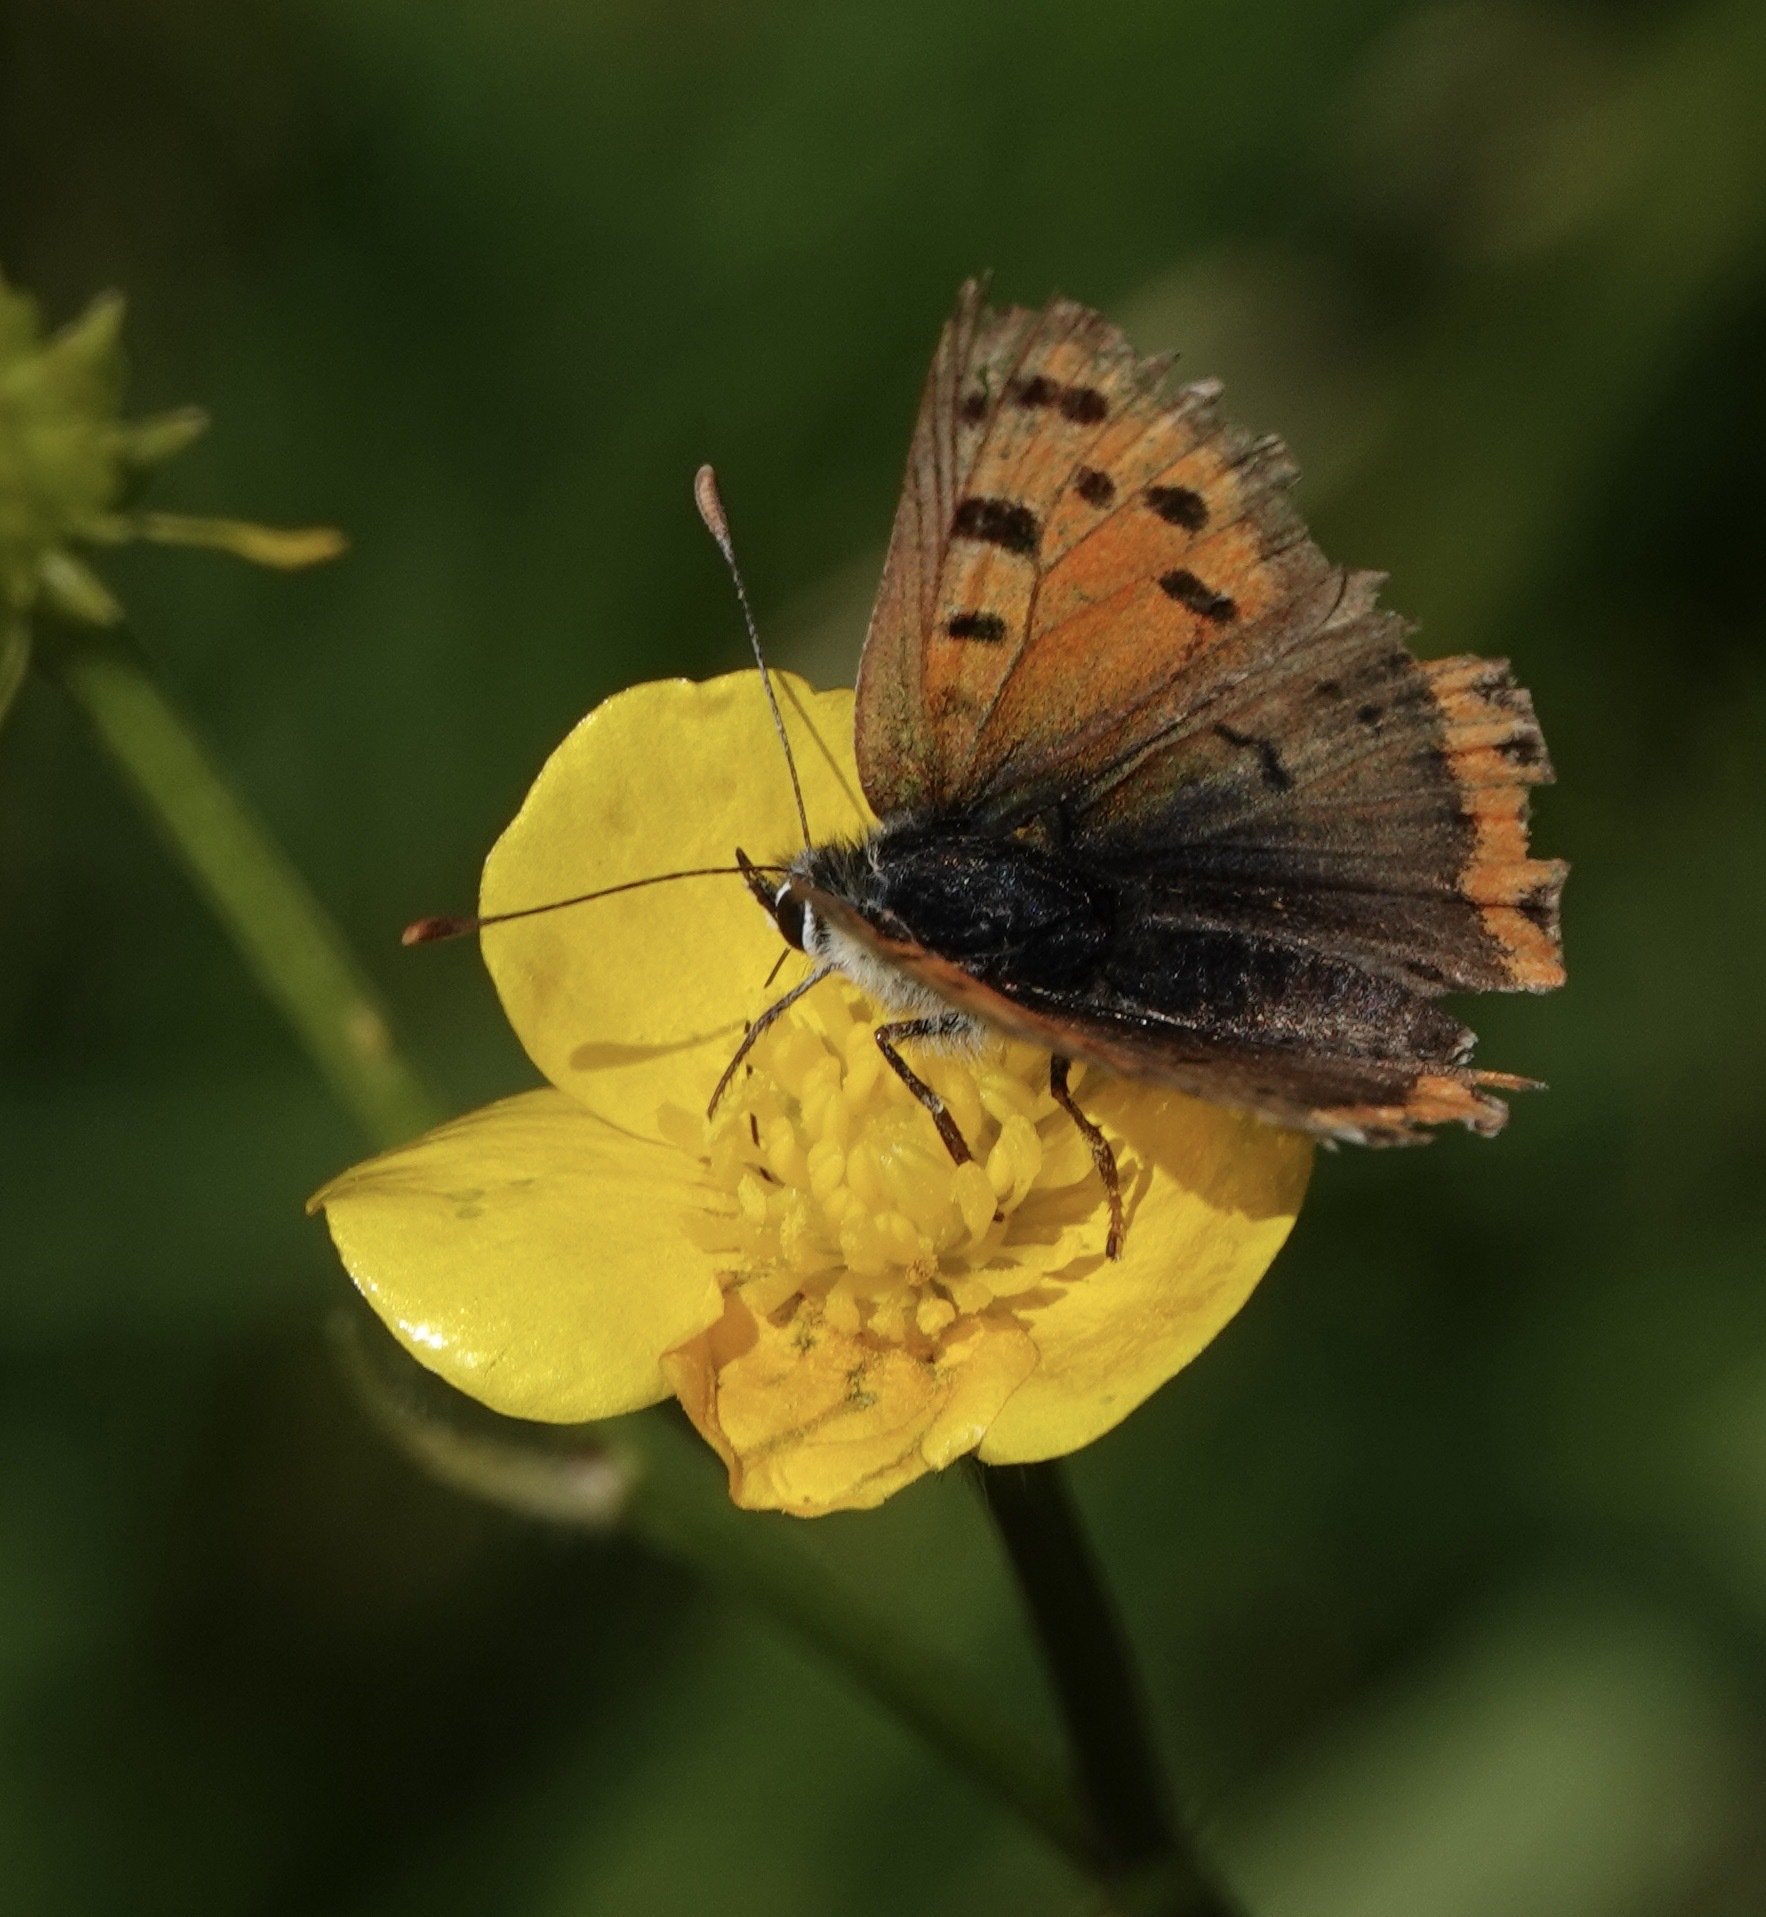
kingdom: Animalia
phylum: Arthropoda
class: Insecta
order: Lepidoptera
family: Lycaenidae
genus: Lycaena
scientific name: Lycaena phlaeas
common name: Small copper
